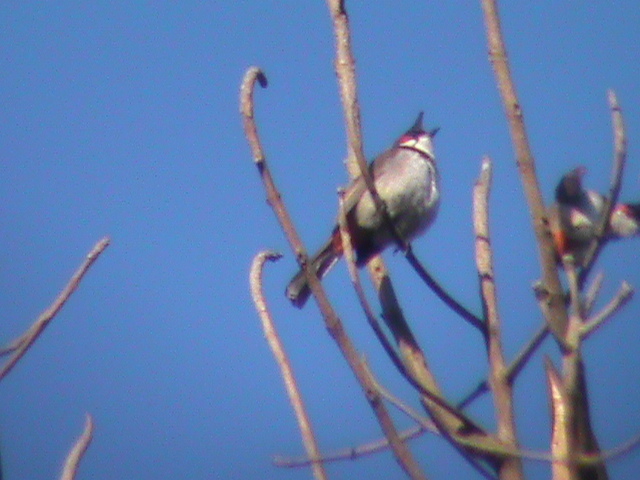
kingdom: Animalia
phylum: Chordata
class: Aves
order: Passeriformes
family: Pycnonotidae
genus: Pycnonotus
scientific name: Pycnonotus jocosus
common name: Red-whiskered bulbul
